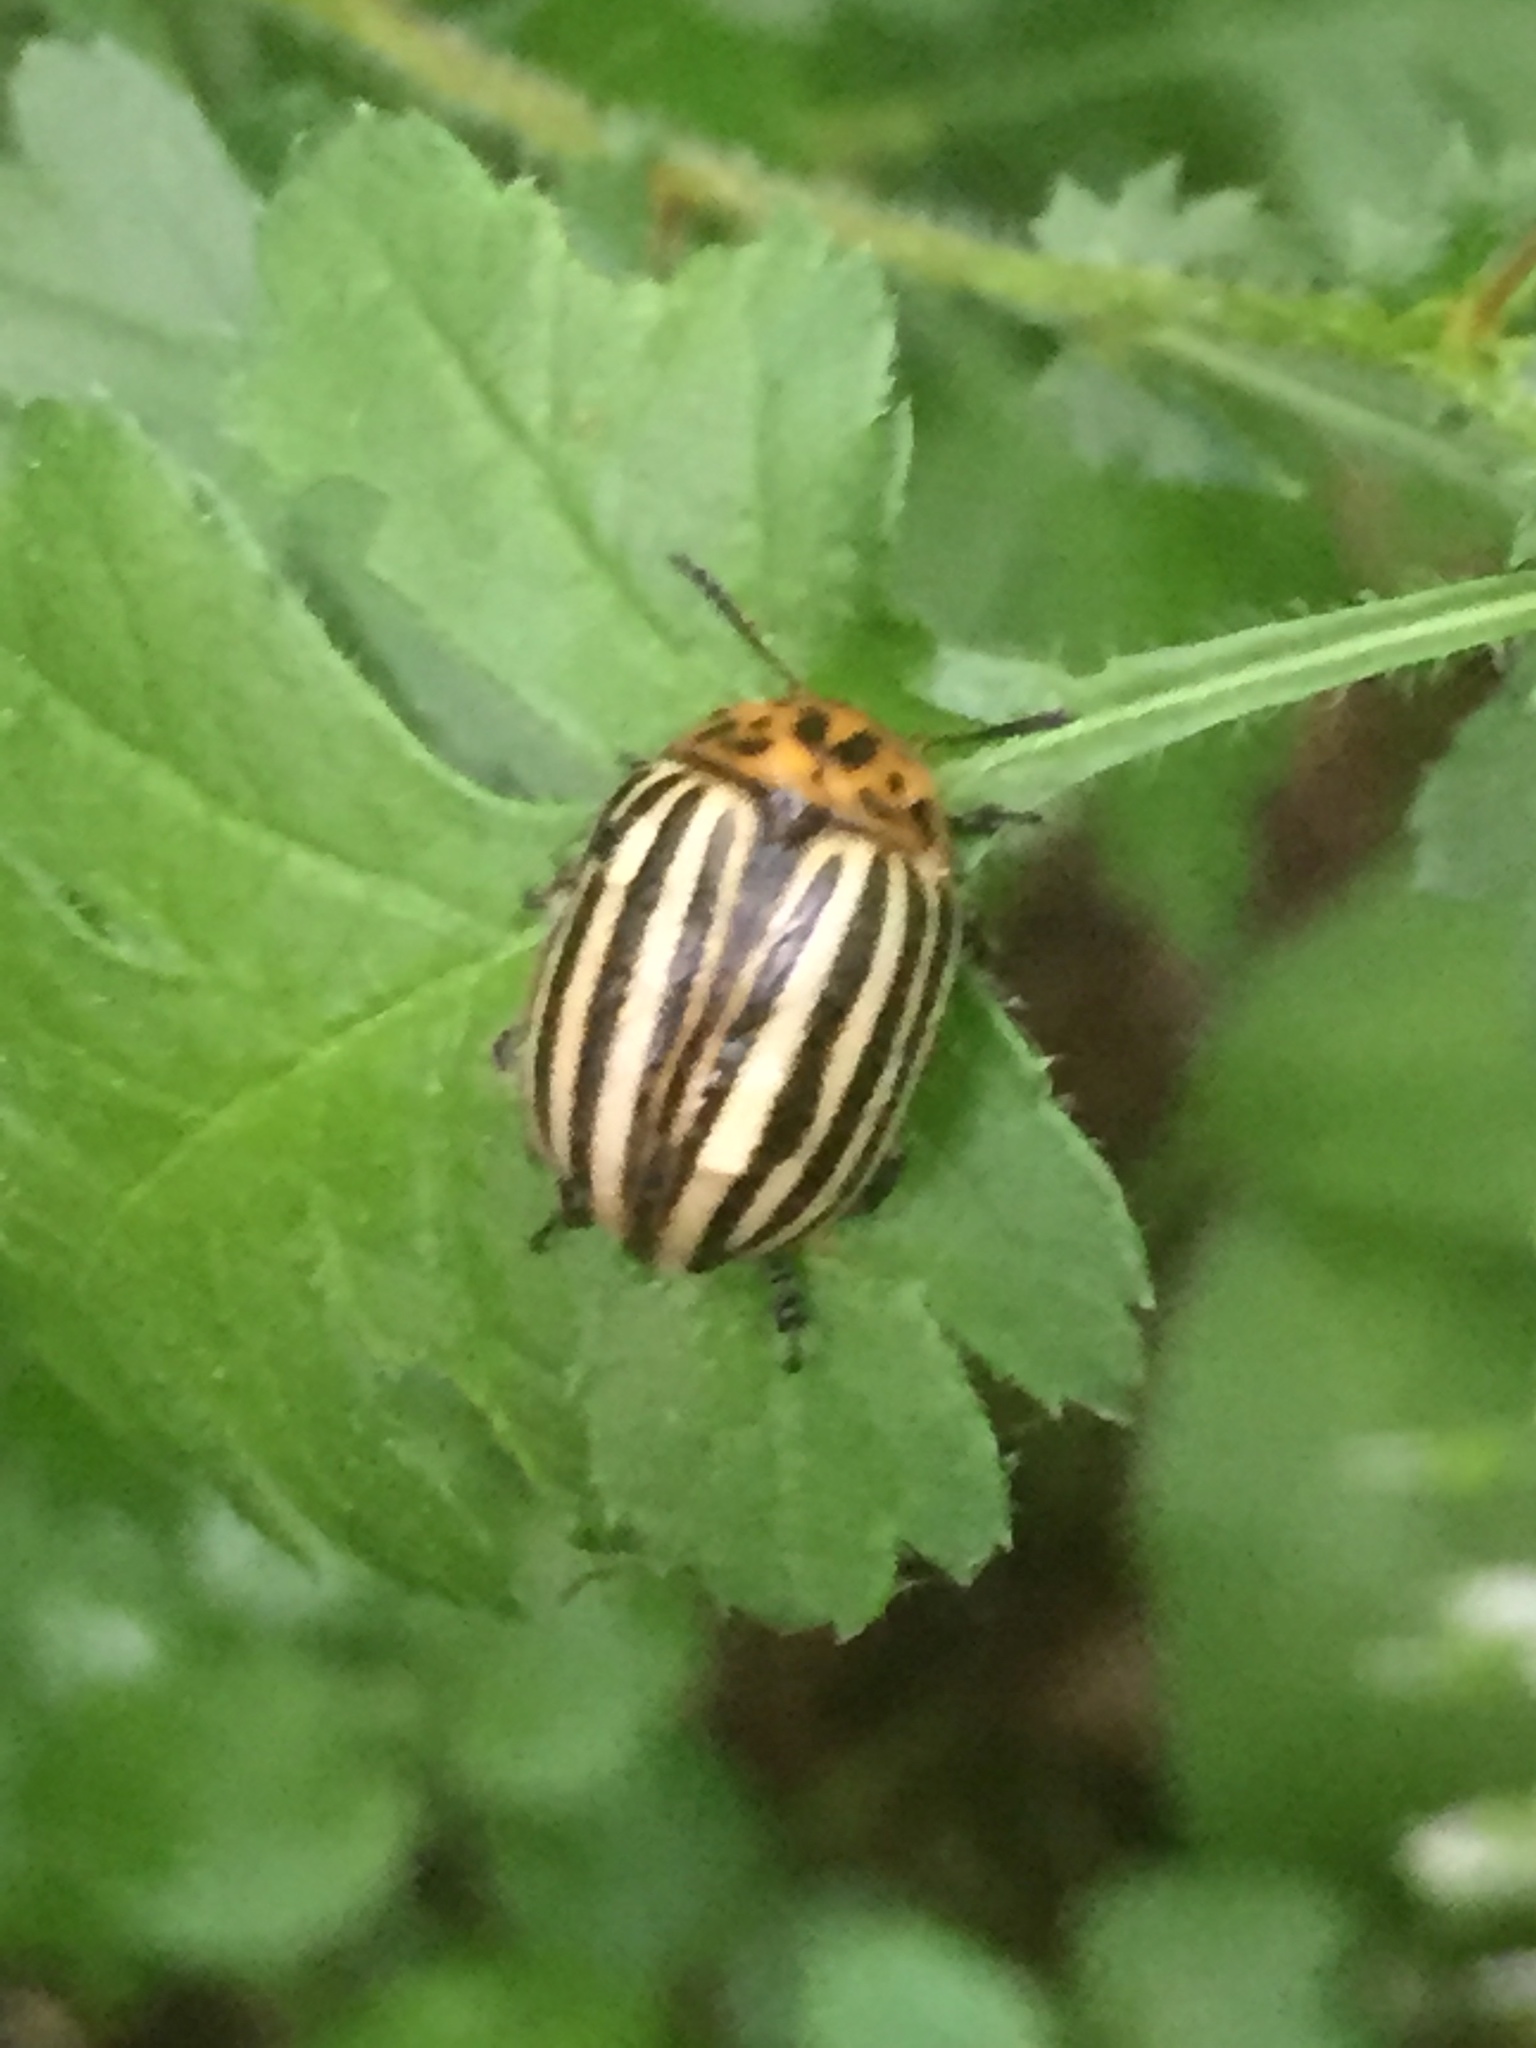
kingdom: Animalia
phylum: Arthropoda
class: Insecta
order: Coleoptera
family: Chrysomelidae
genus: Leptinotarsa
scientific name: Leptinotarsa decemlineata
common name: Colorado potato beetle
